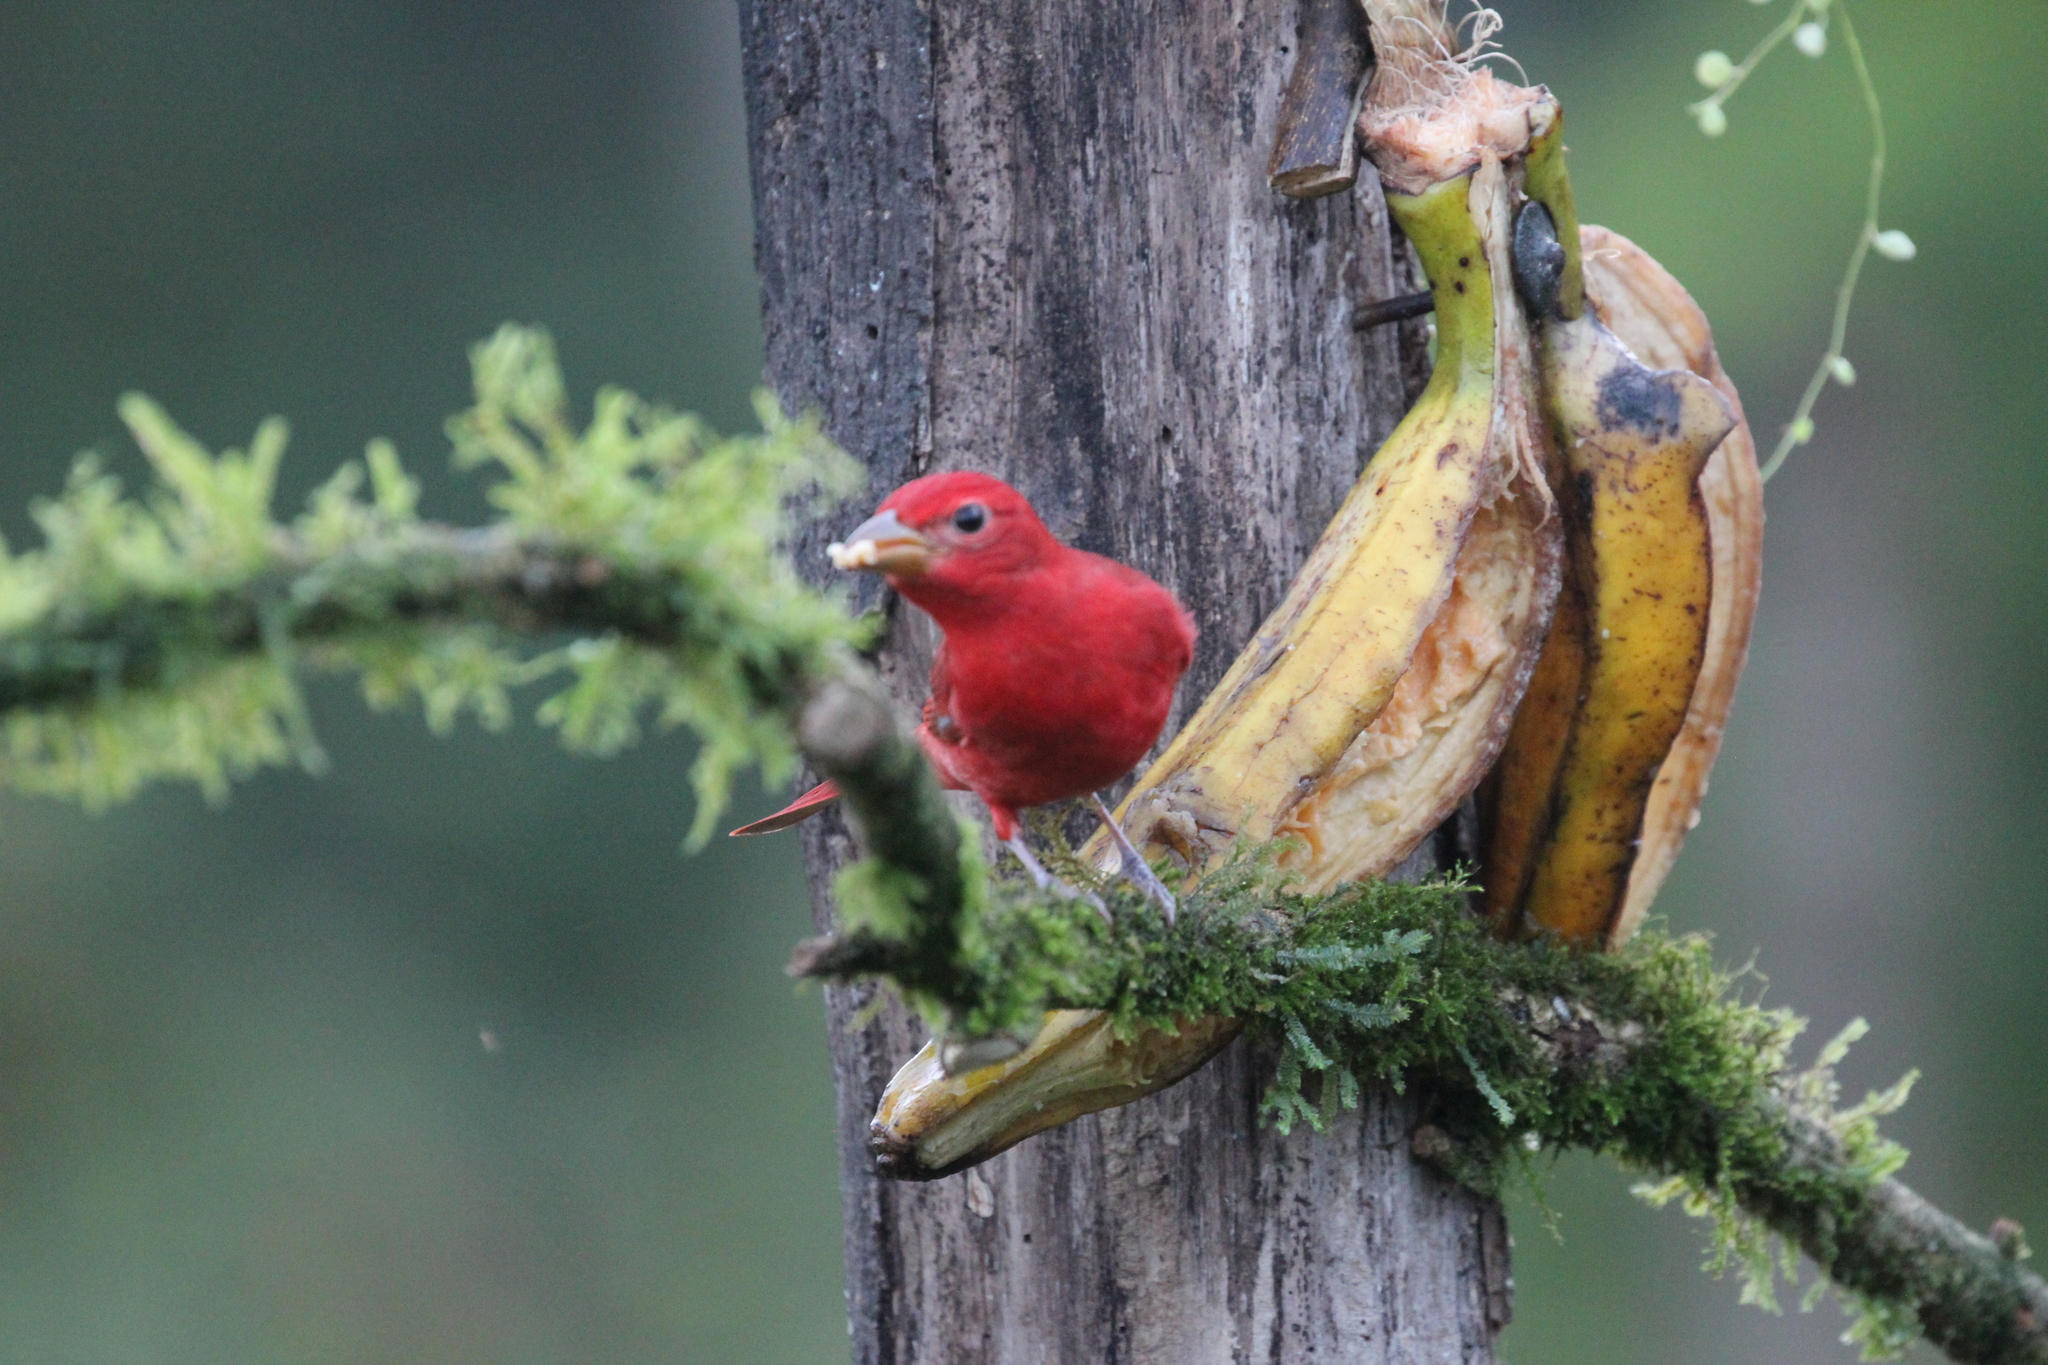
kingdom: Animalia
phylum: Chordata
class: Aves
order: Passeriformes
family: Cardinalidae
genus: Piranga
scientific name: Piranga rubra
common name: Summer tanager
